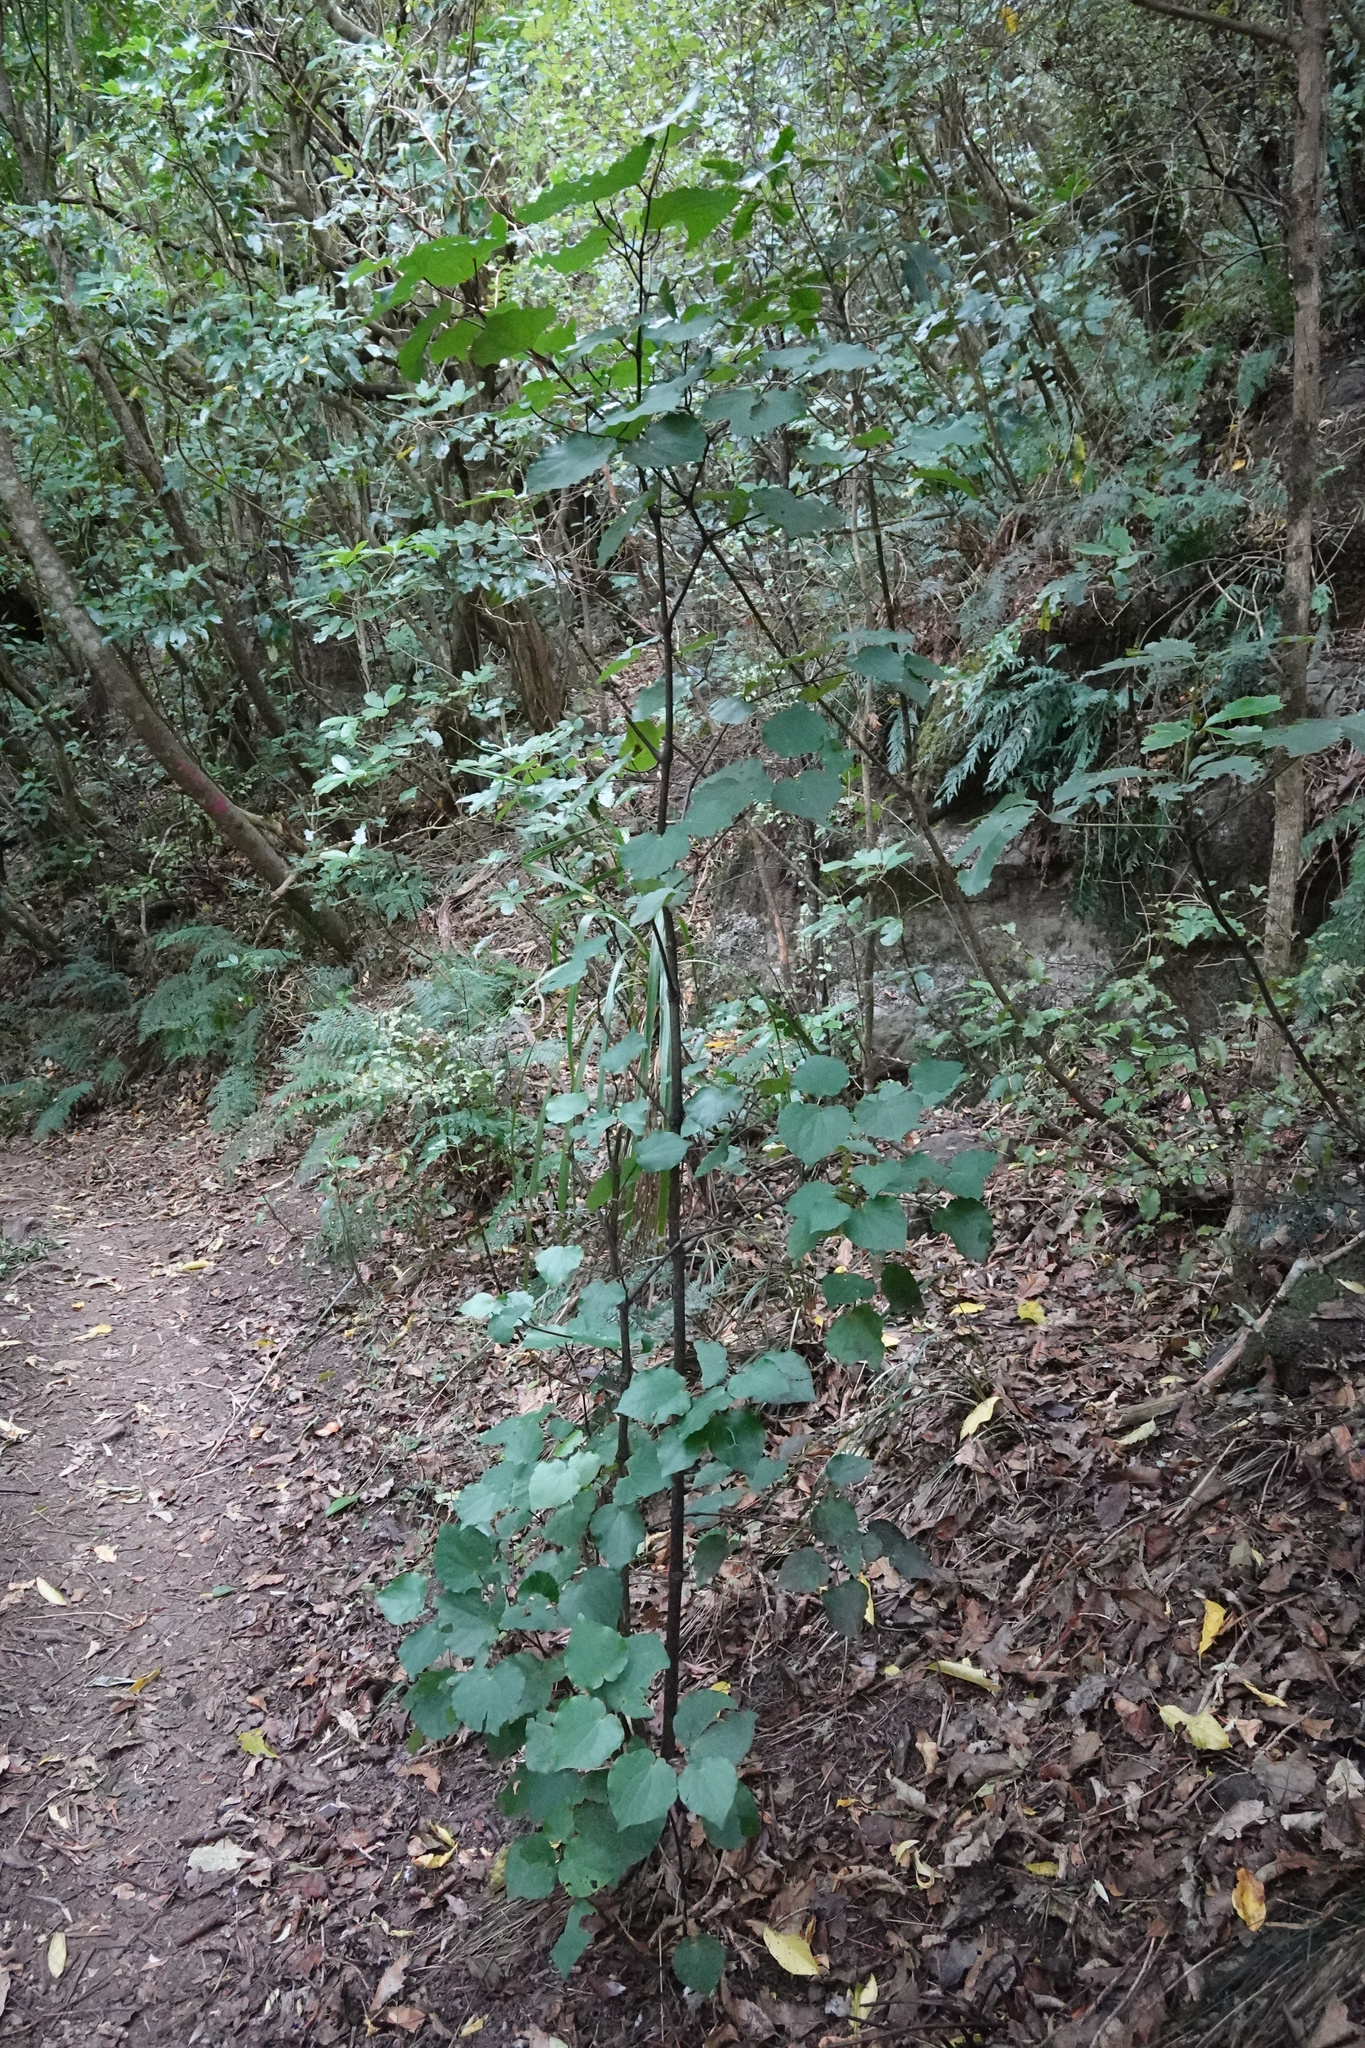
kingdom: Plantae
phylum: Tracheophyta
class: Magnoliopsida
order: Piperales
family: Piperaceae
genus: Macropiper
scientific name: Macropiper excelsum
